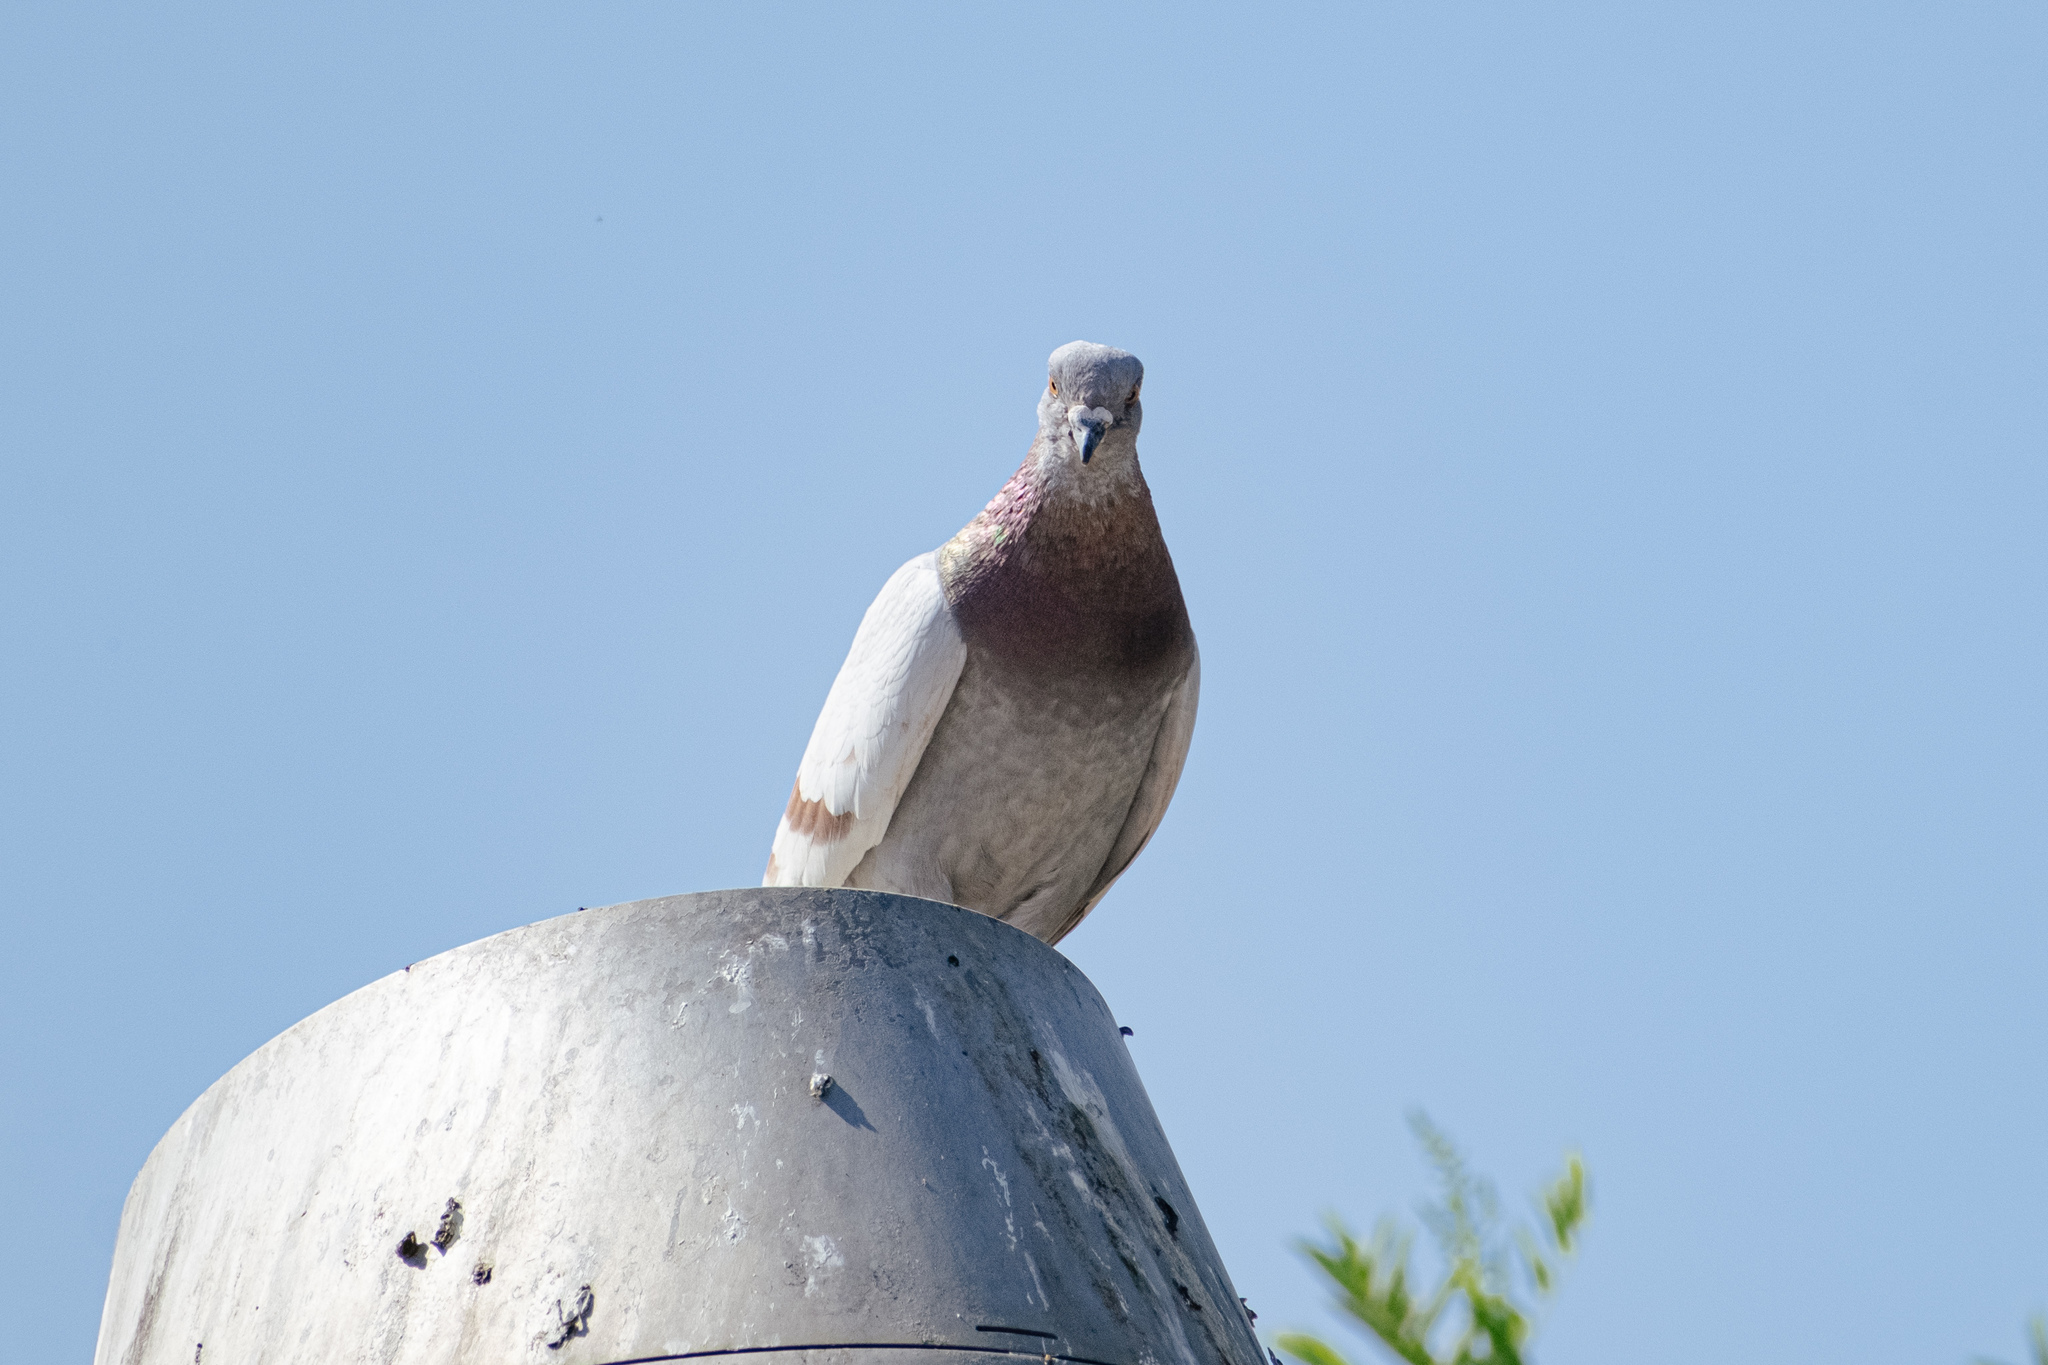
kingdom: Animalia
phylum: Chordata
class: Aves
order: Columbiformes
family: Columbidae
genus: Columba
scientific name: Columba livia
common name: Rock pigeon
